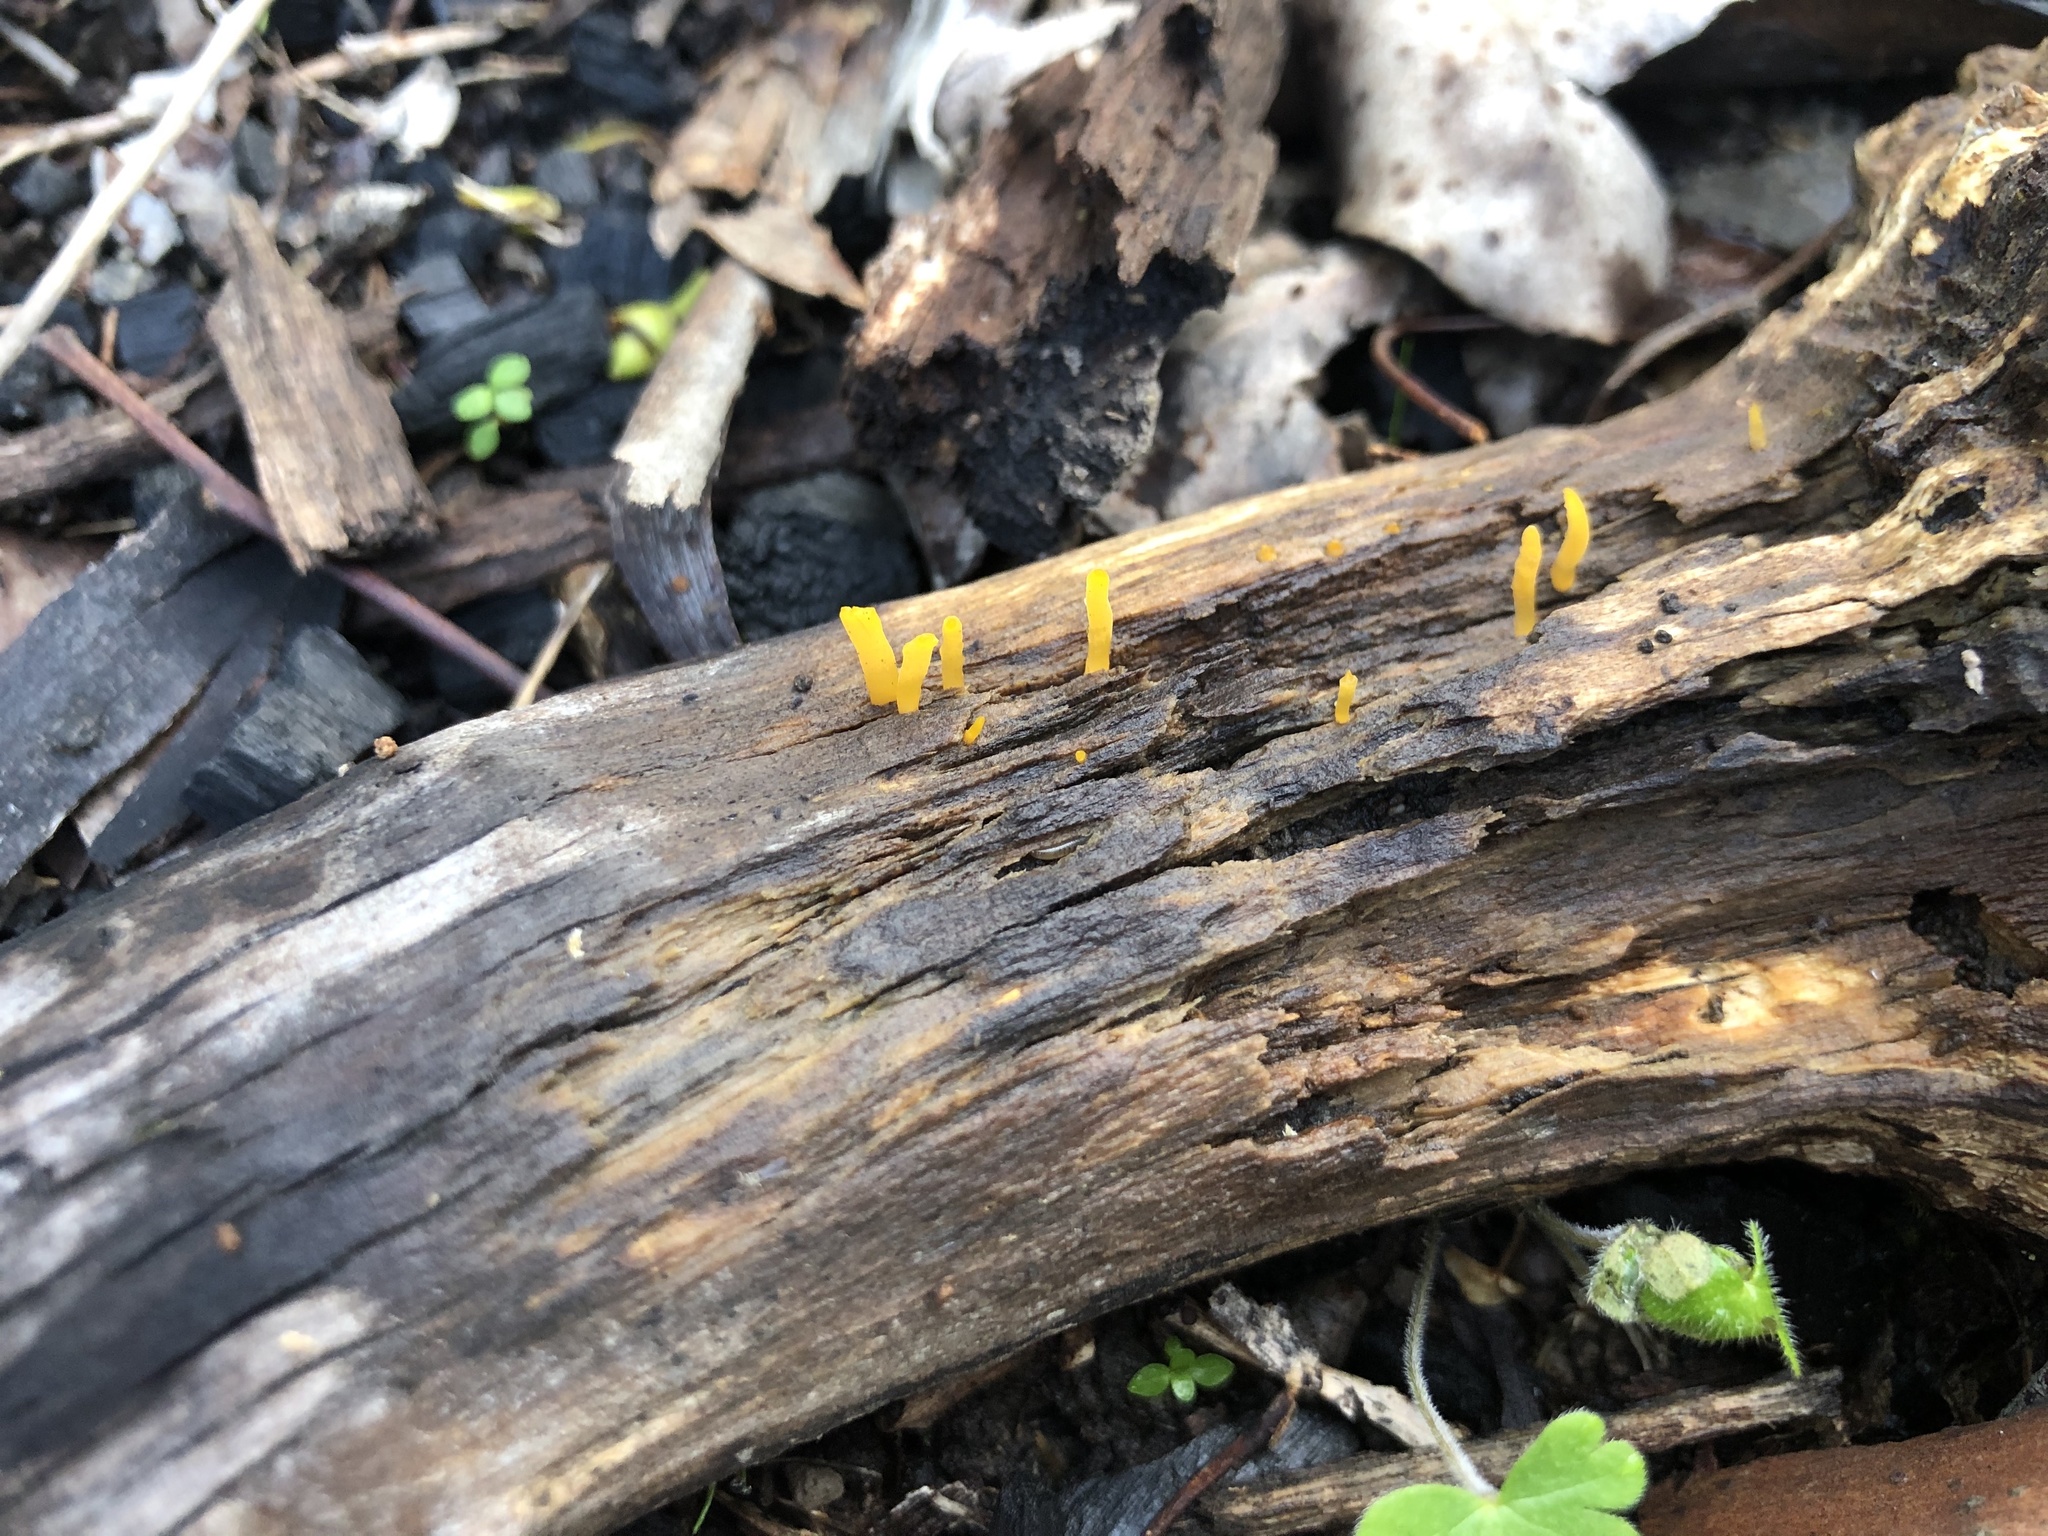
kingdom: Fungi
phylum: Basidiomycota
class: Dacrymycetes
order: Dacrymycetales
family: Dacrymycetaceae
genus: Calocera
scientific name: Calocera australis
